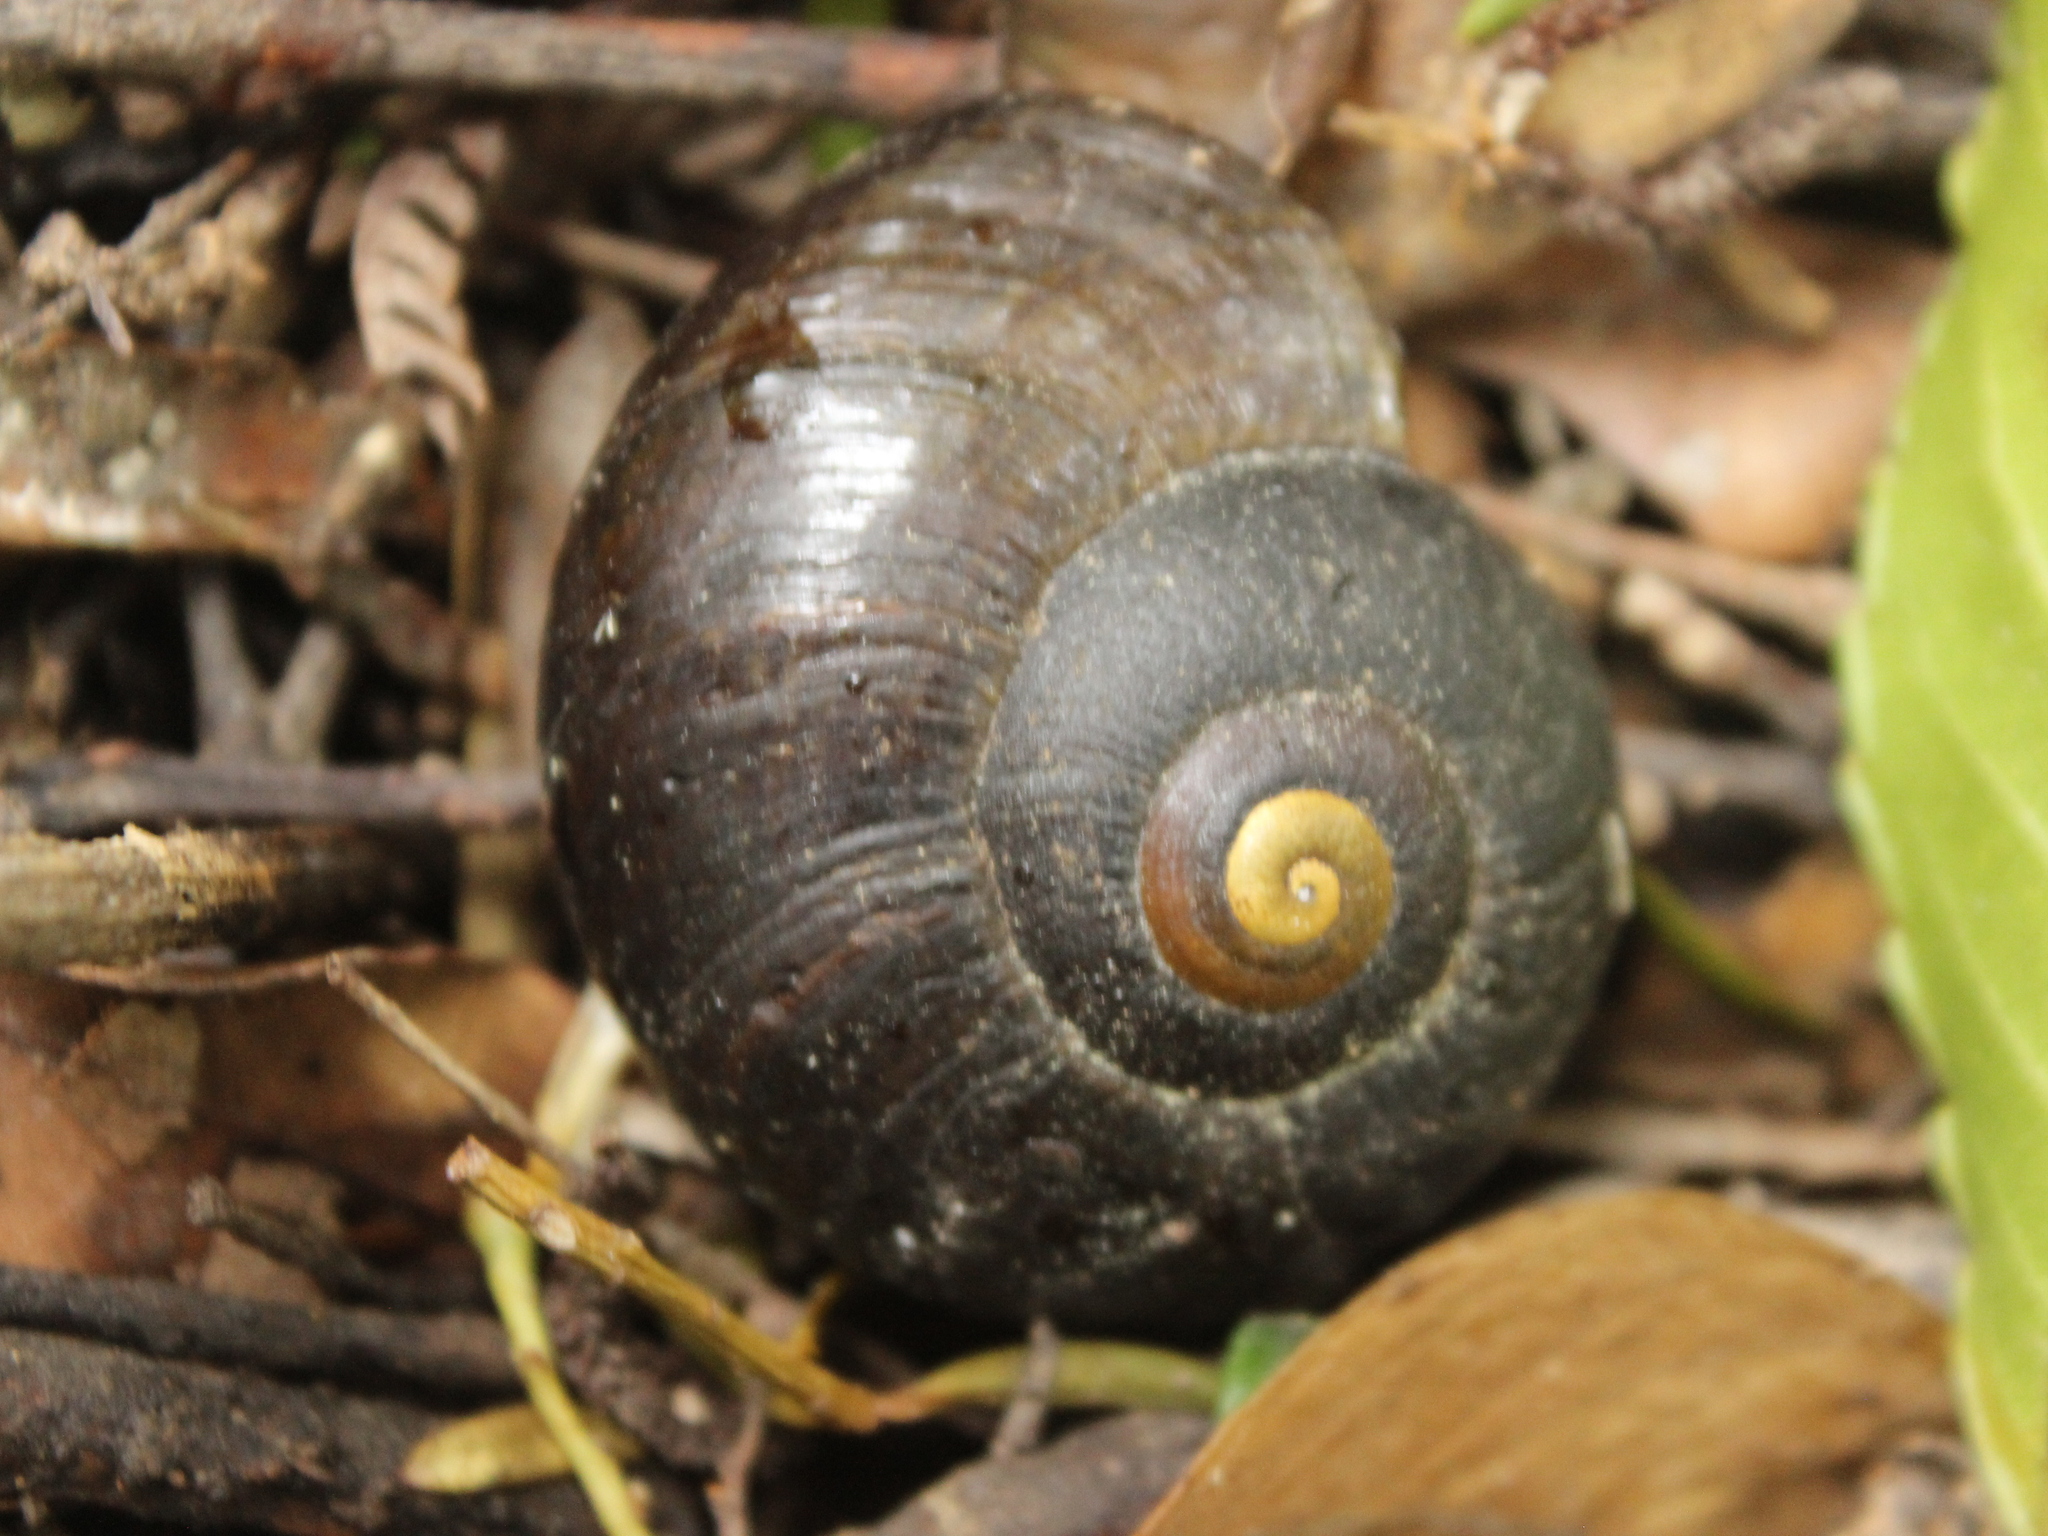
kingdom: Animalia
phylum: Mollusca
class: Gastropoda
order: Stylommatophora
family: Rhytididae
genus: Powelliphanta
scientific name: Powelliphanta traversi
